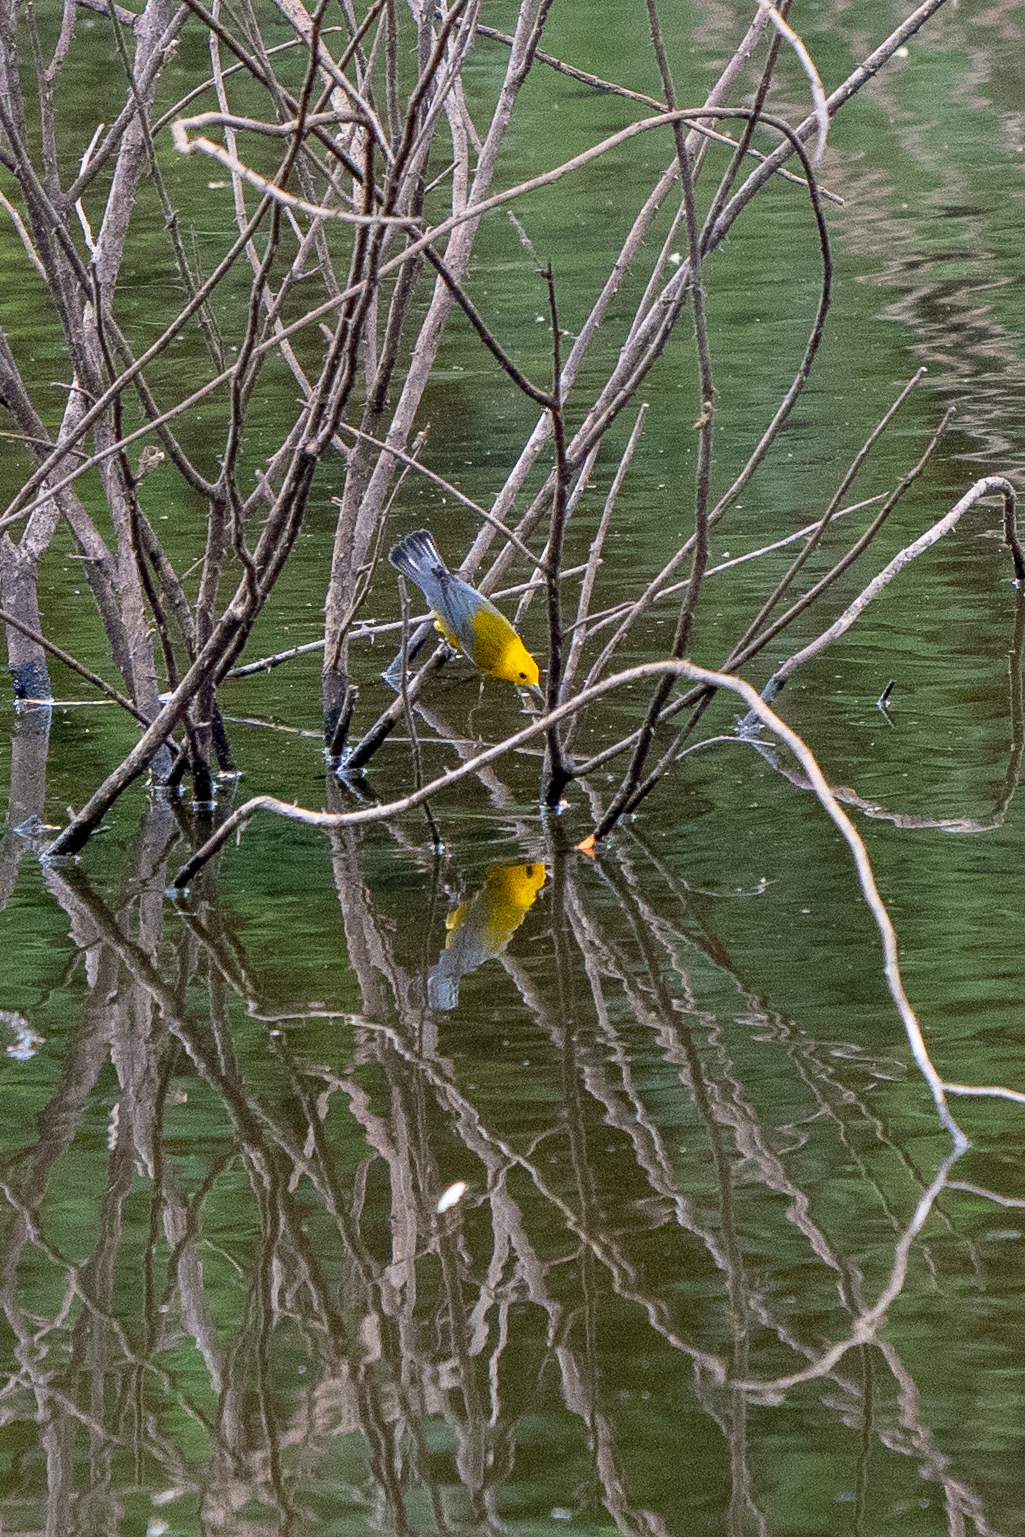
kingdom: Animalia
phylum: Chordata
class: Aves
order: Passeriformes
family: Parulidae
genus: Protonotaria
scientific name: Protonotaria citrea
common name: Prothonotary warbler
